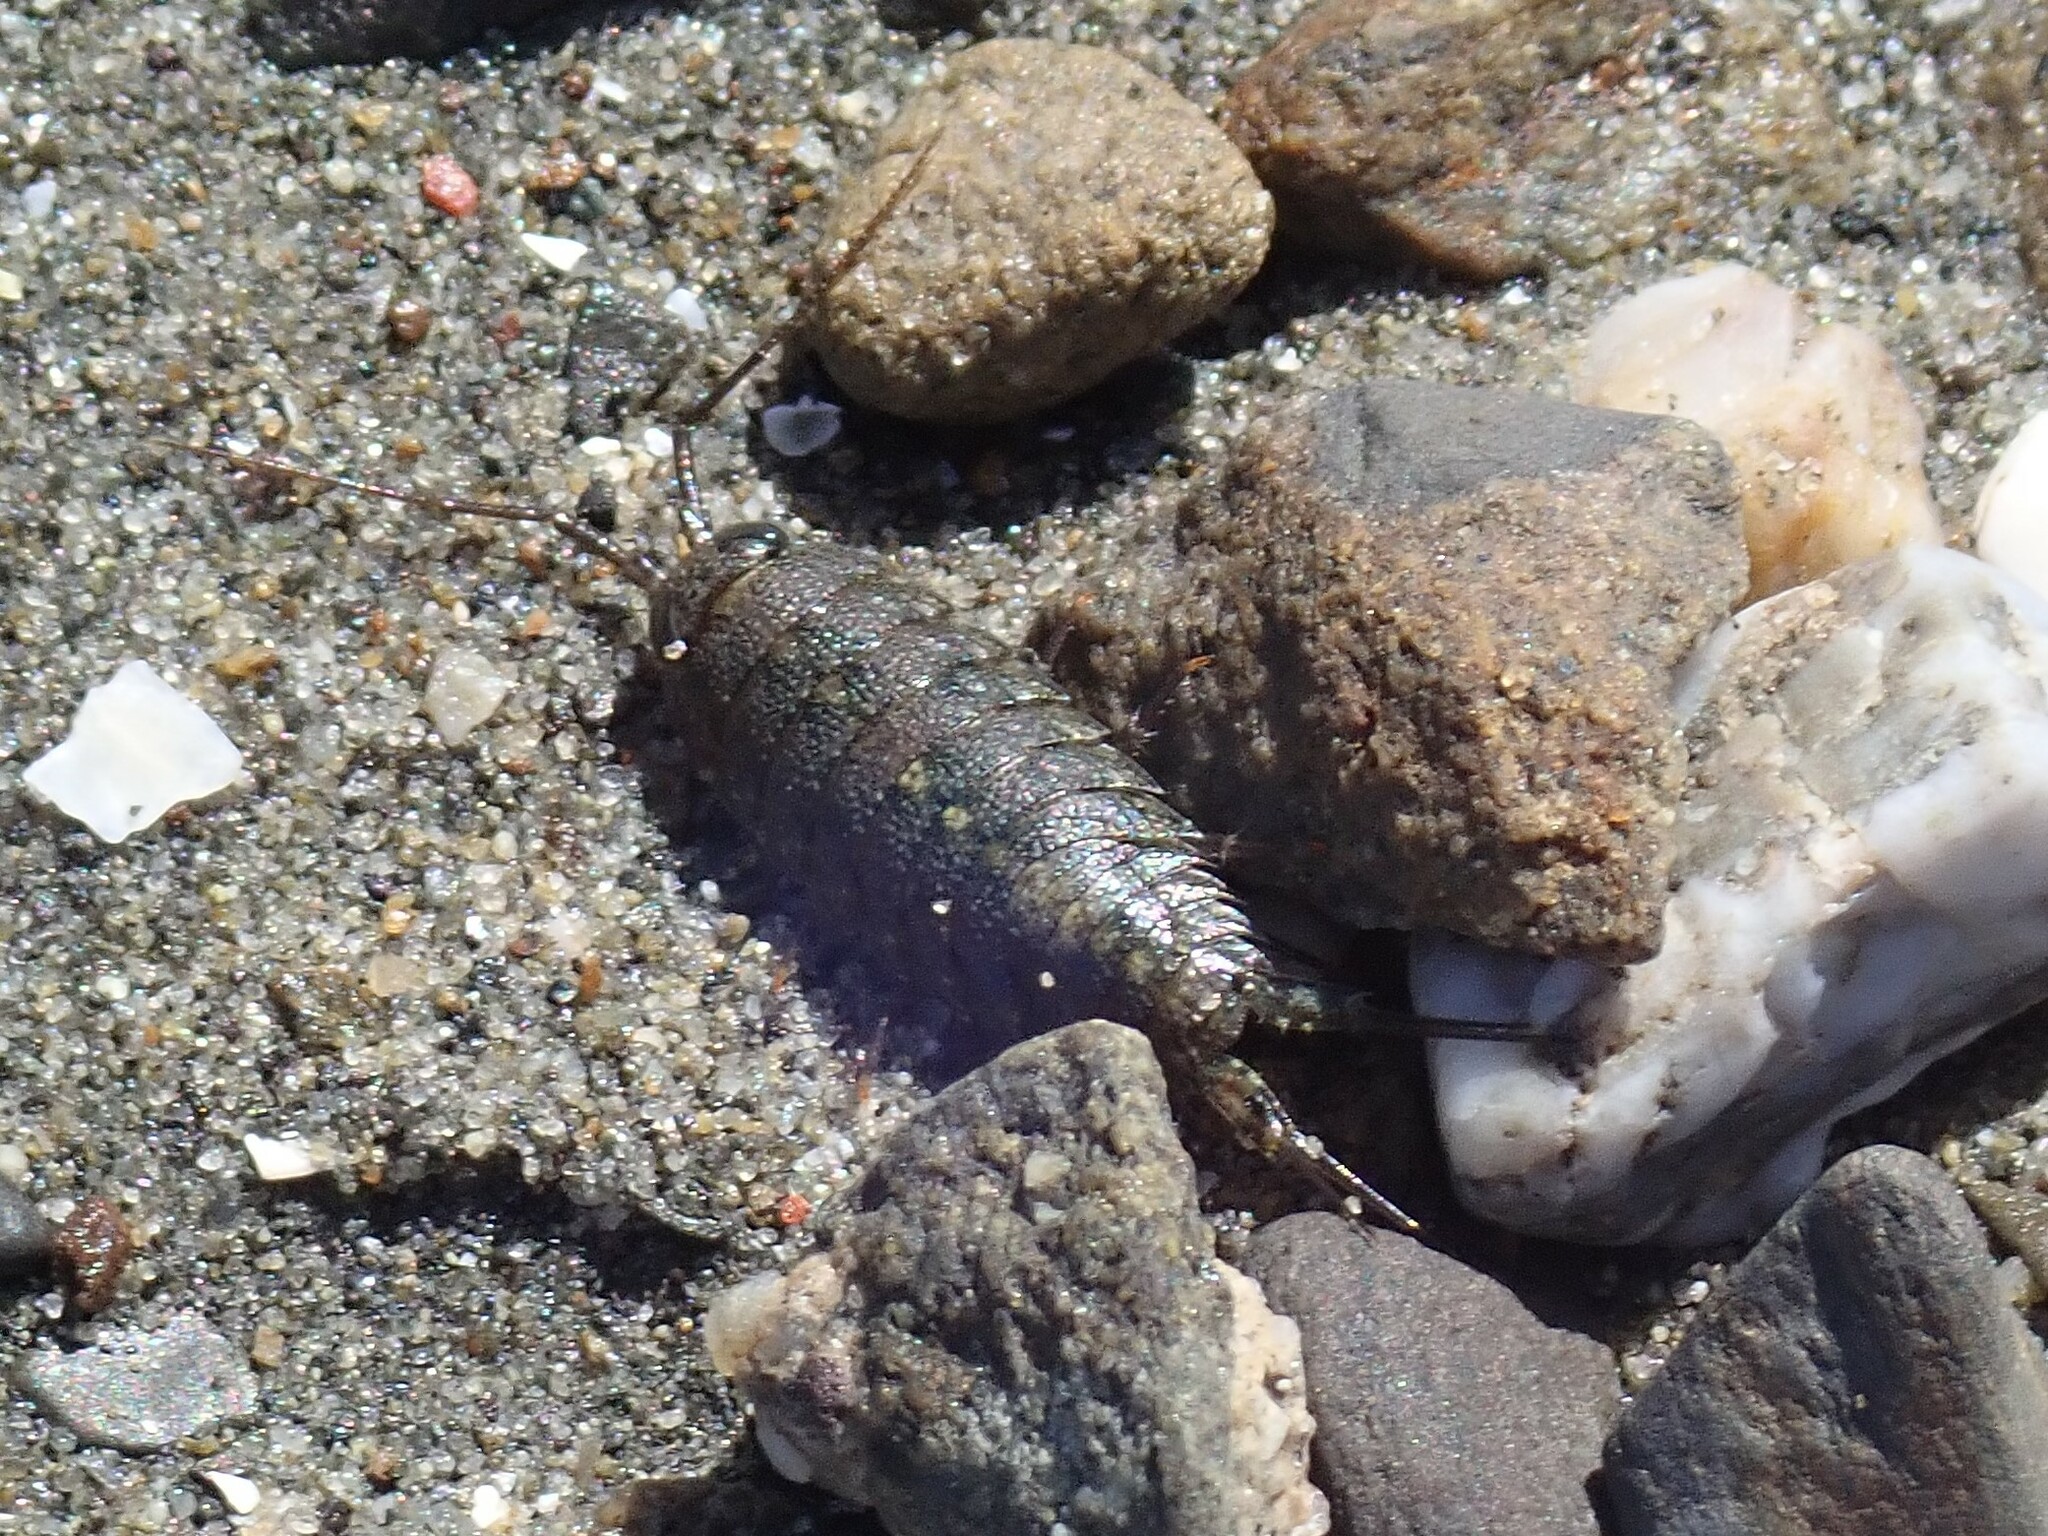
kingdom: Animalia
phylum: Arthropoda
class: Malacostraca
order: Isopoda
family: Ligiidae
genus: Ligia
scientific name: Ligia occidentalis
